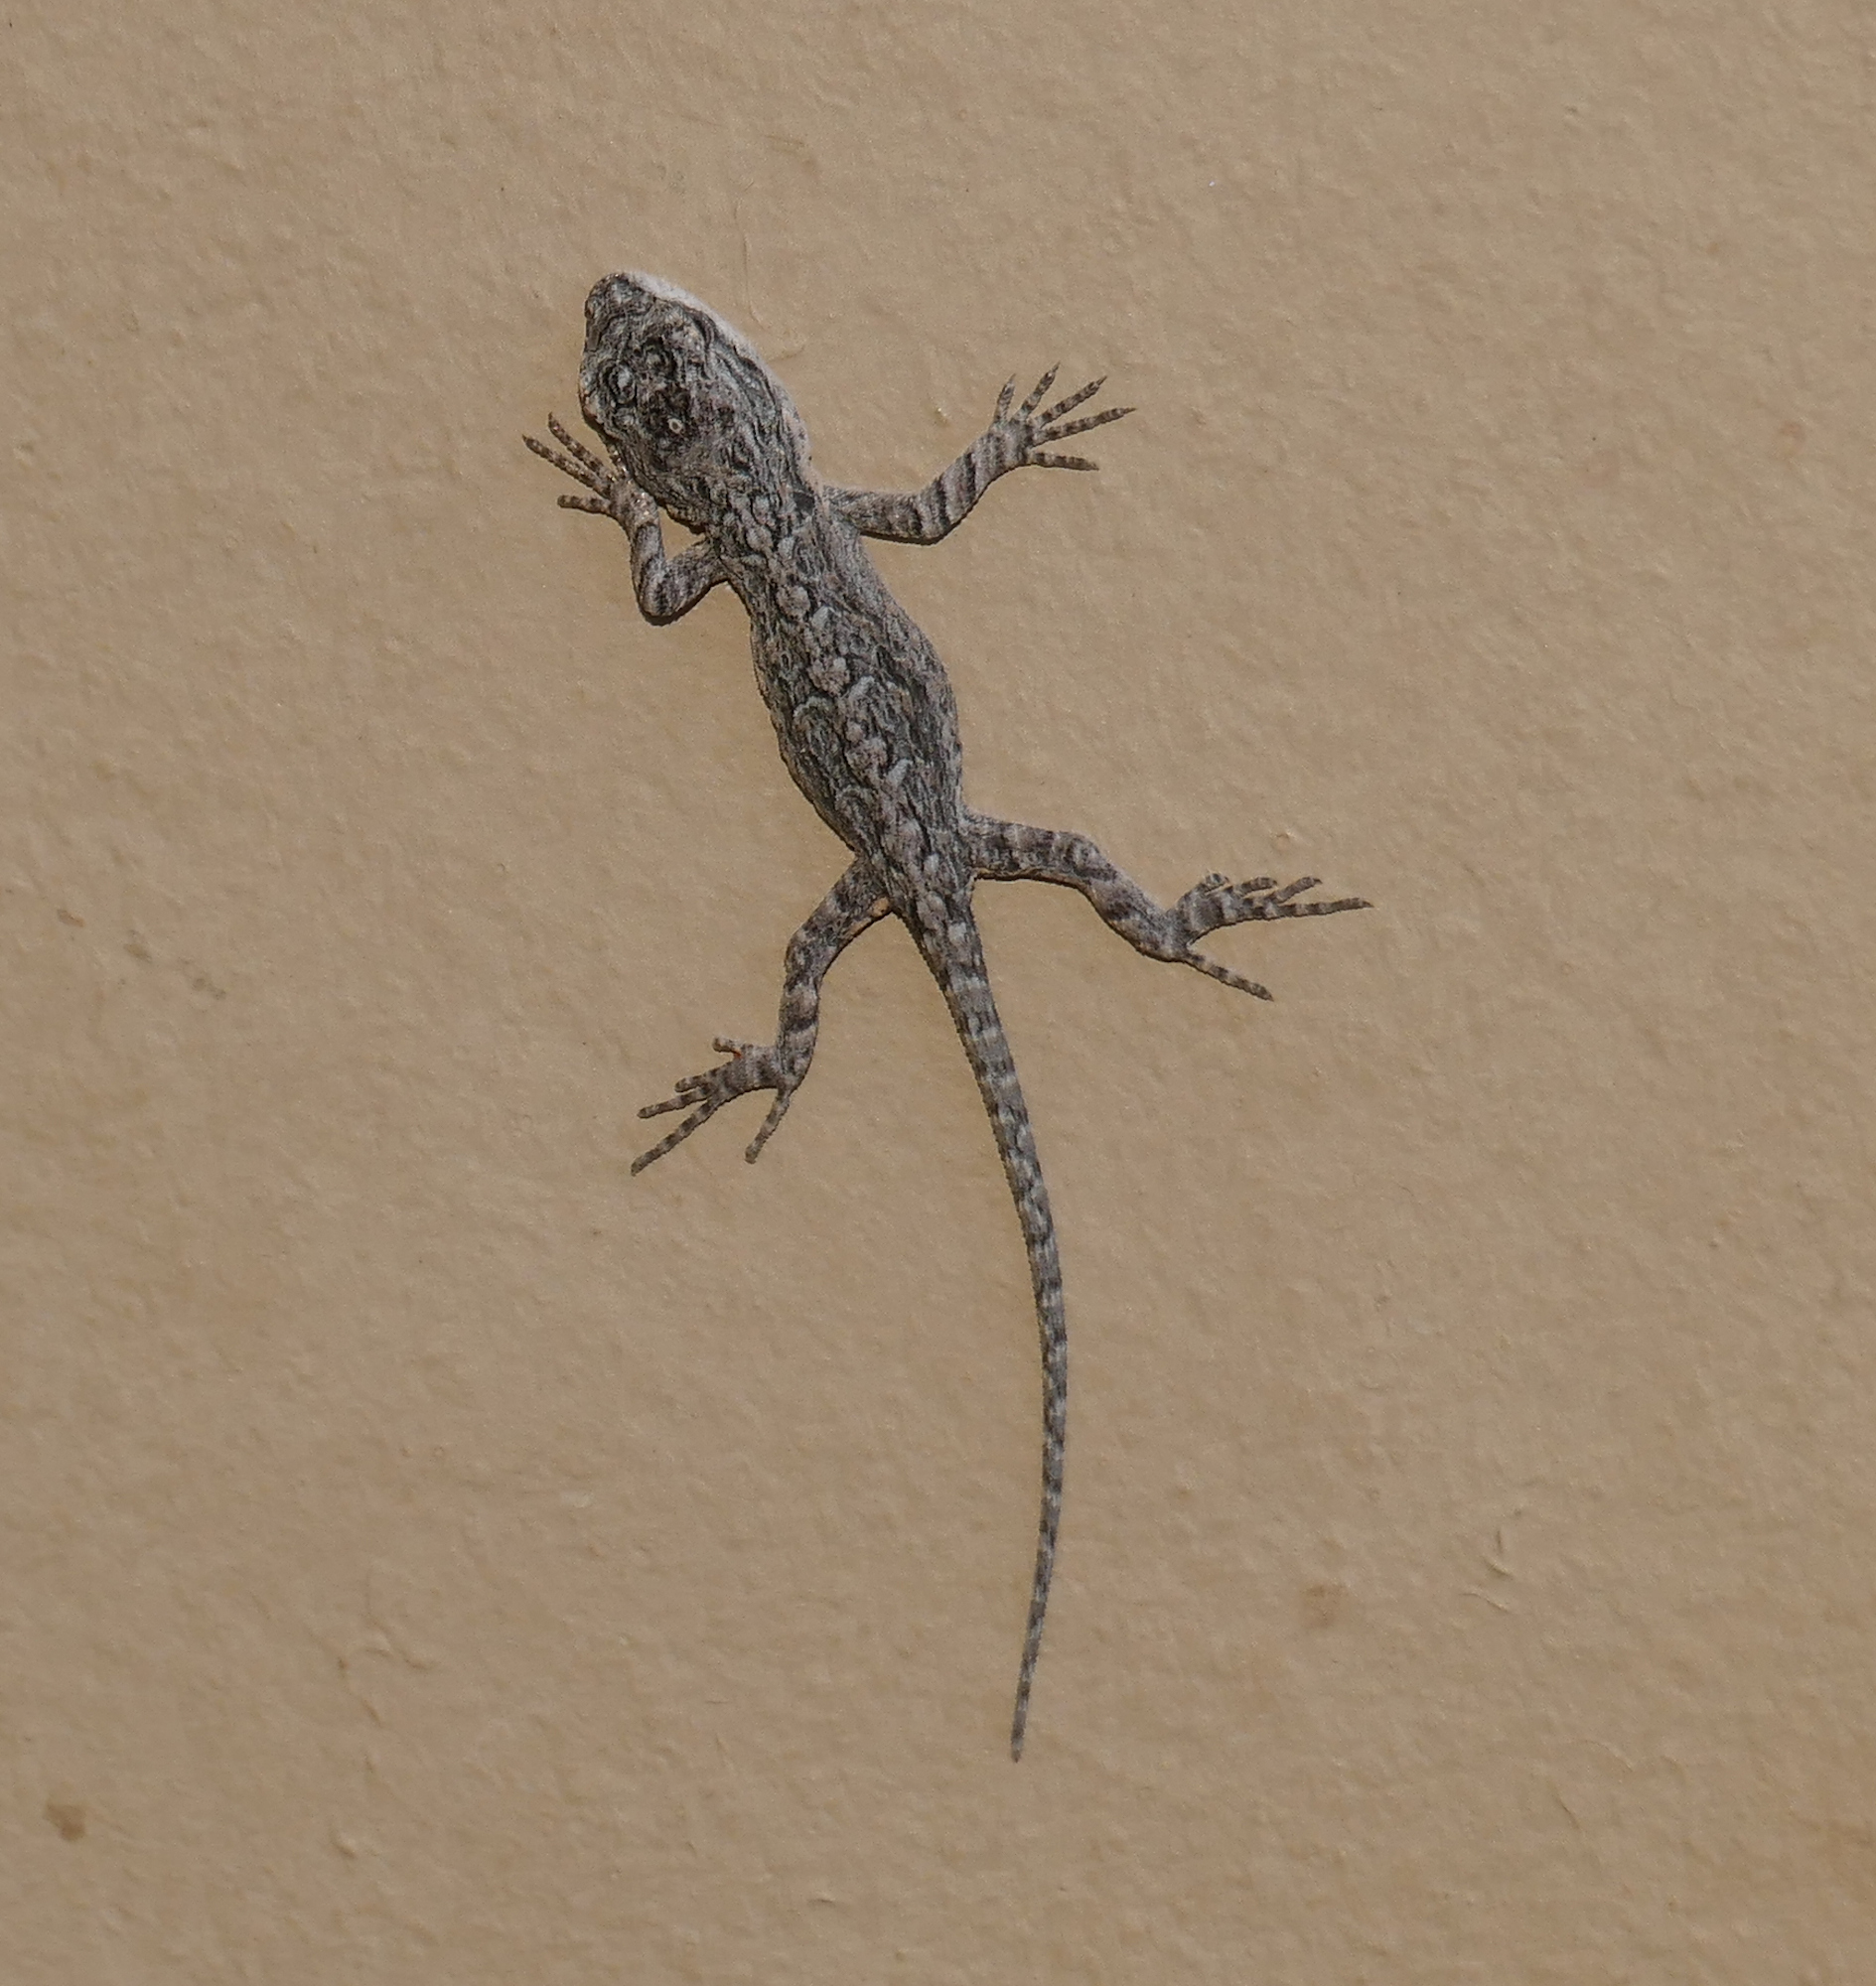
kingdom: Animalia
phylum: Chordata
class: Squamata
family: Phrynosomatidae
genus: Urosaurus
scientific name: Urosaurus ornatus
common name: Ornate tree lizard
